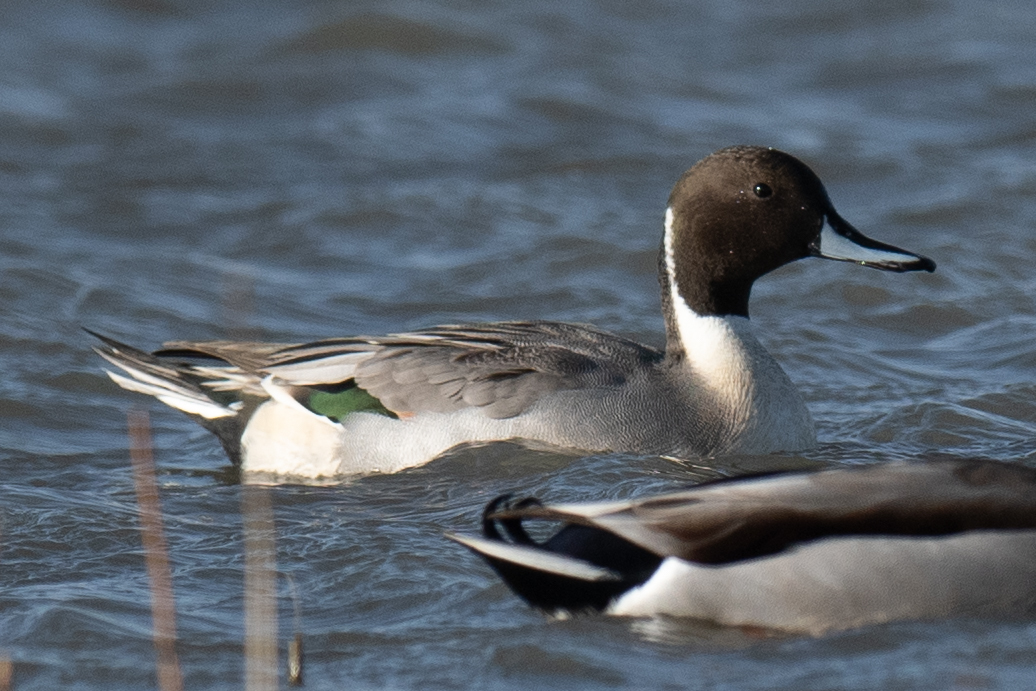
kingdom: Animalia
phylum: Chordata
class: Aves
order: Anseriformes
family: Anatidae
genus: Anas
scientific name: Anas acuta
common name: Northern pintail
